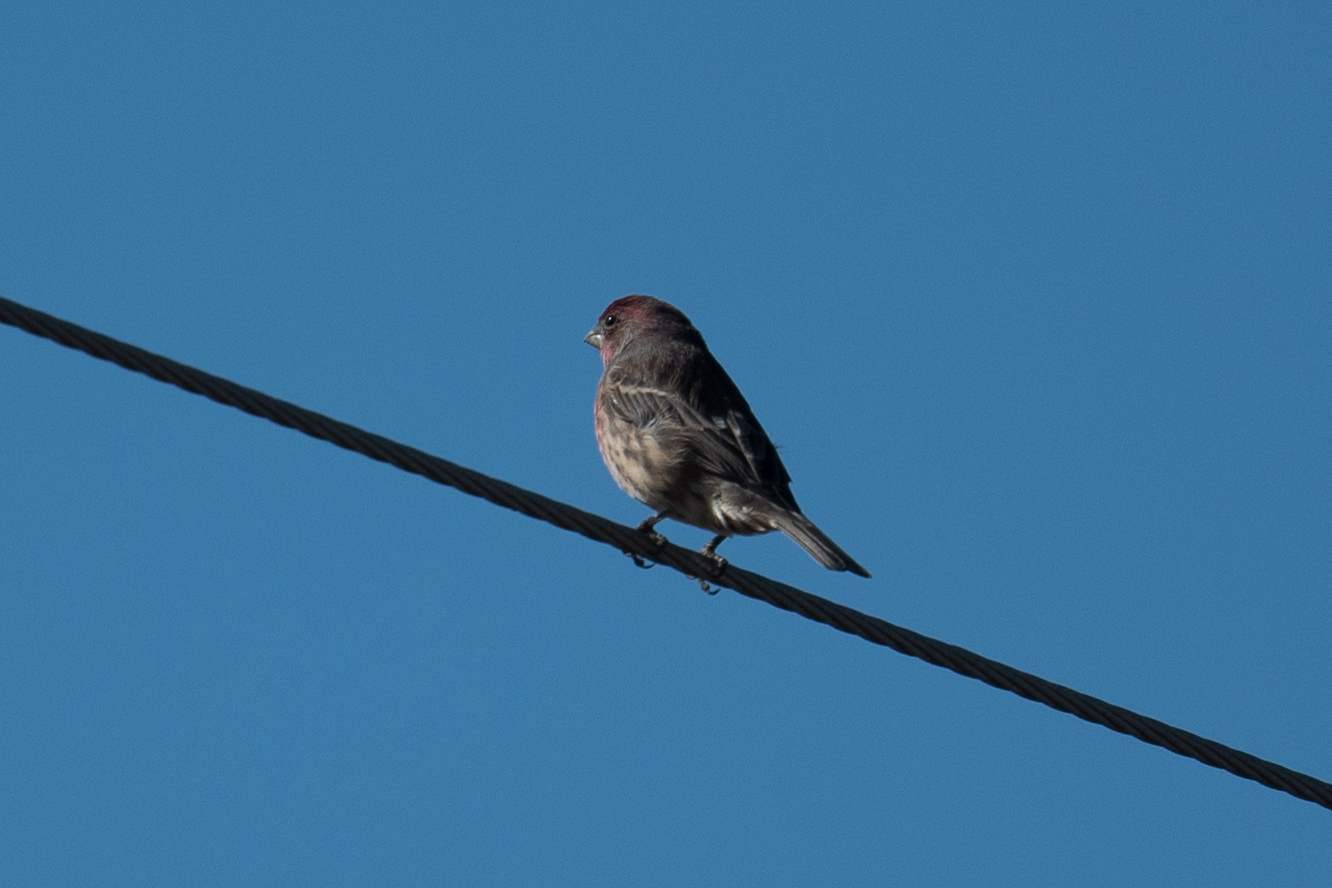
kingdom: Animalia
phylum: Chordata
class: Aves
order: Passeriformes
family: Fringillidae
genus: Haemorhous
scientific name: Haemorhous mexicanus
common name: House finch
